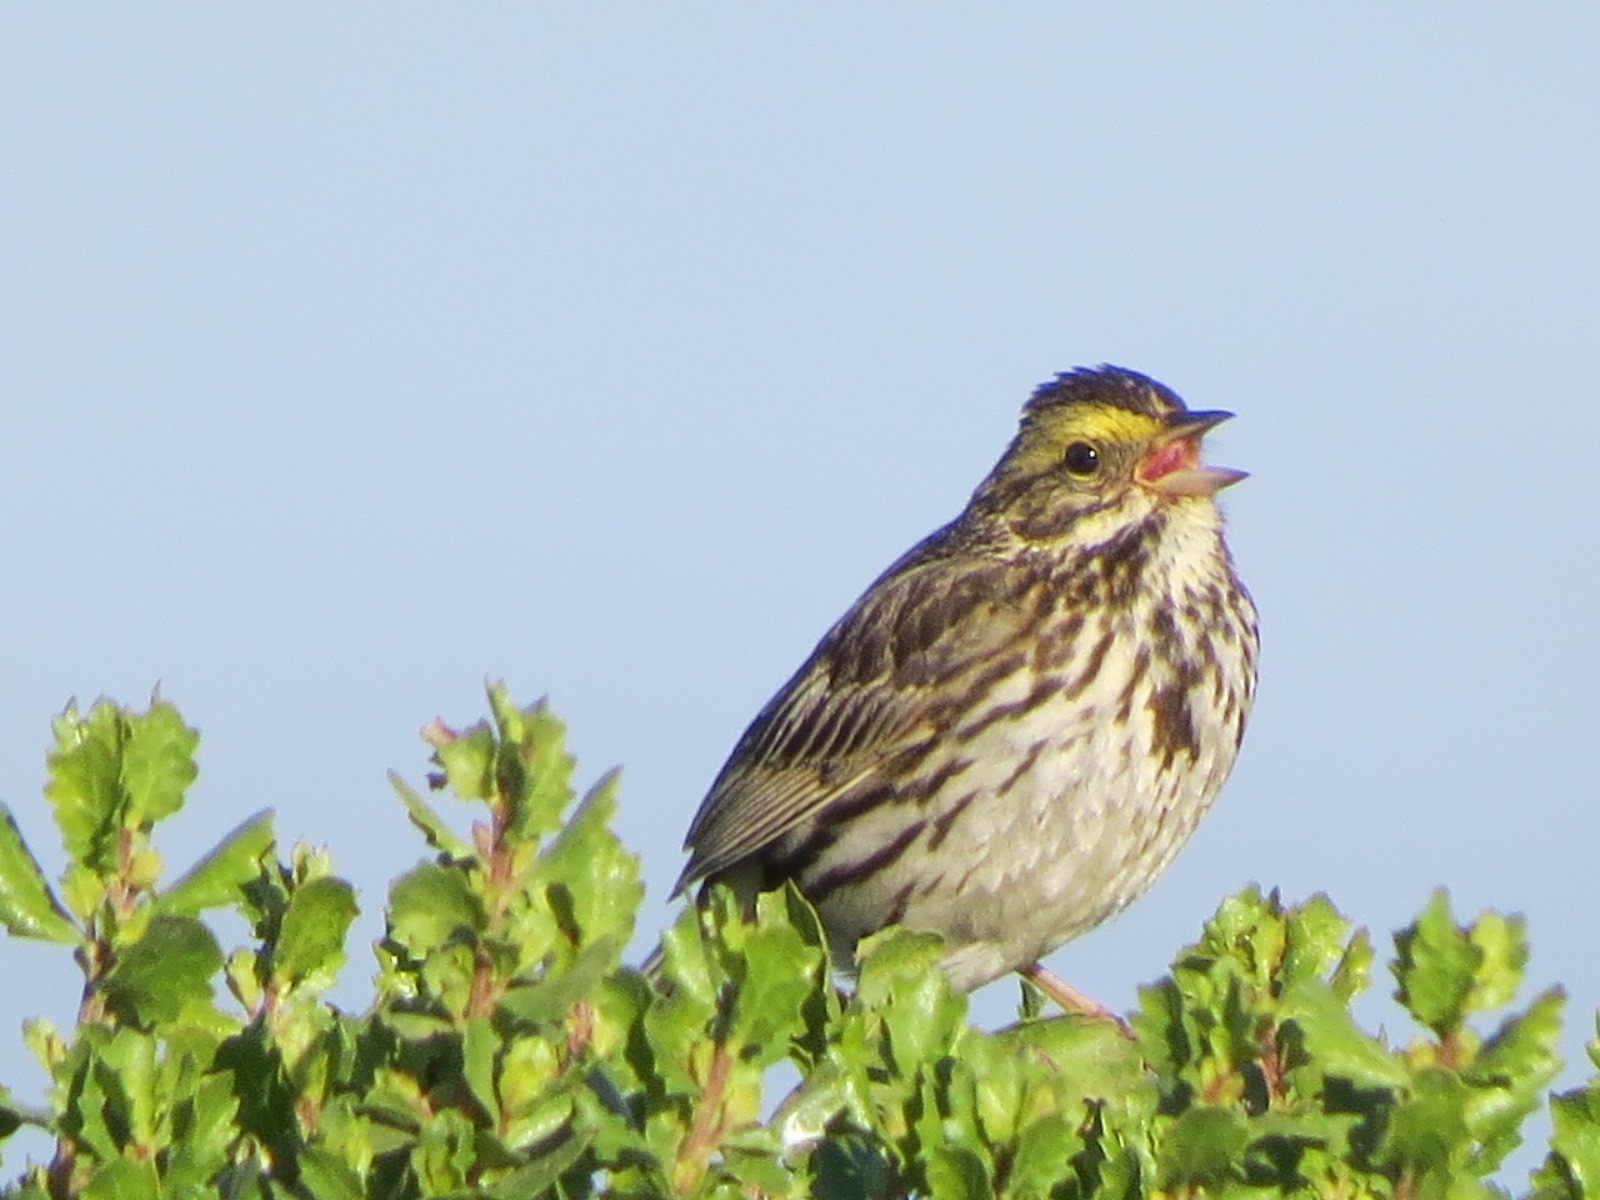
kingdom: Animalia
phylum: Chordata
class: Aves
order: Passeriformes
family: Passerellidae
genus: Passerculus
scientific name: Passerculus sandwichensis
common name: Savannah sparrow
